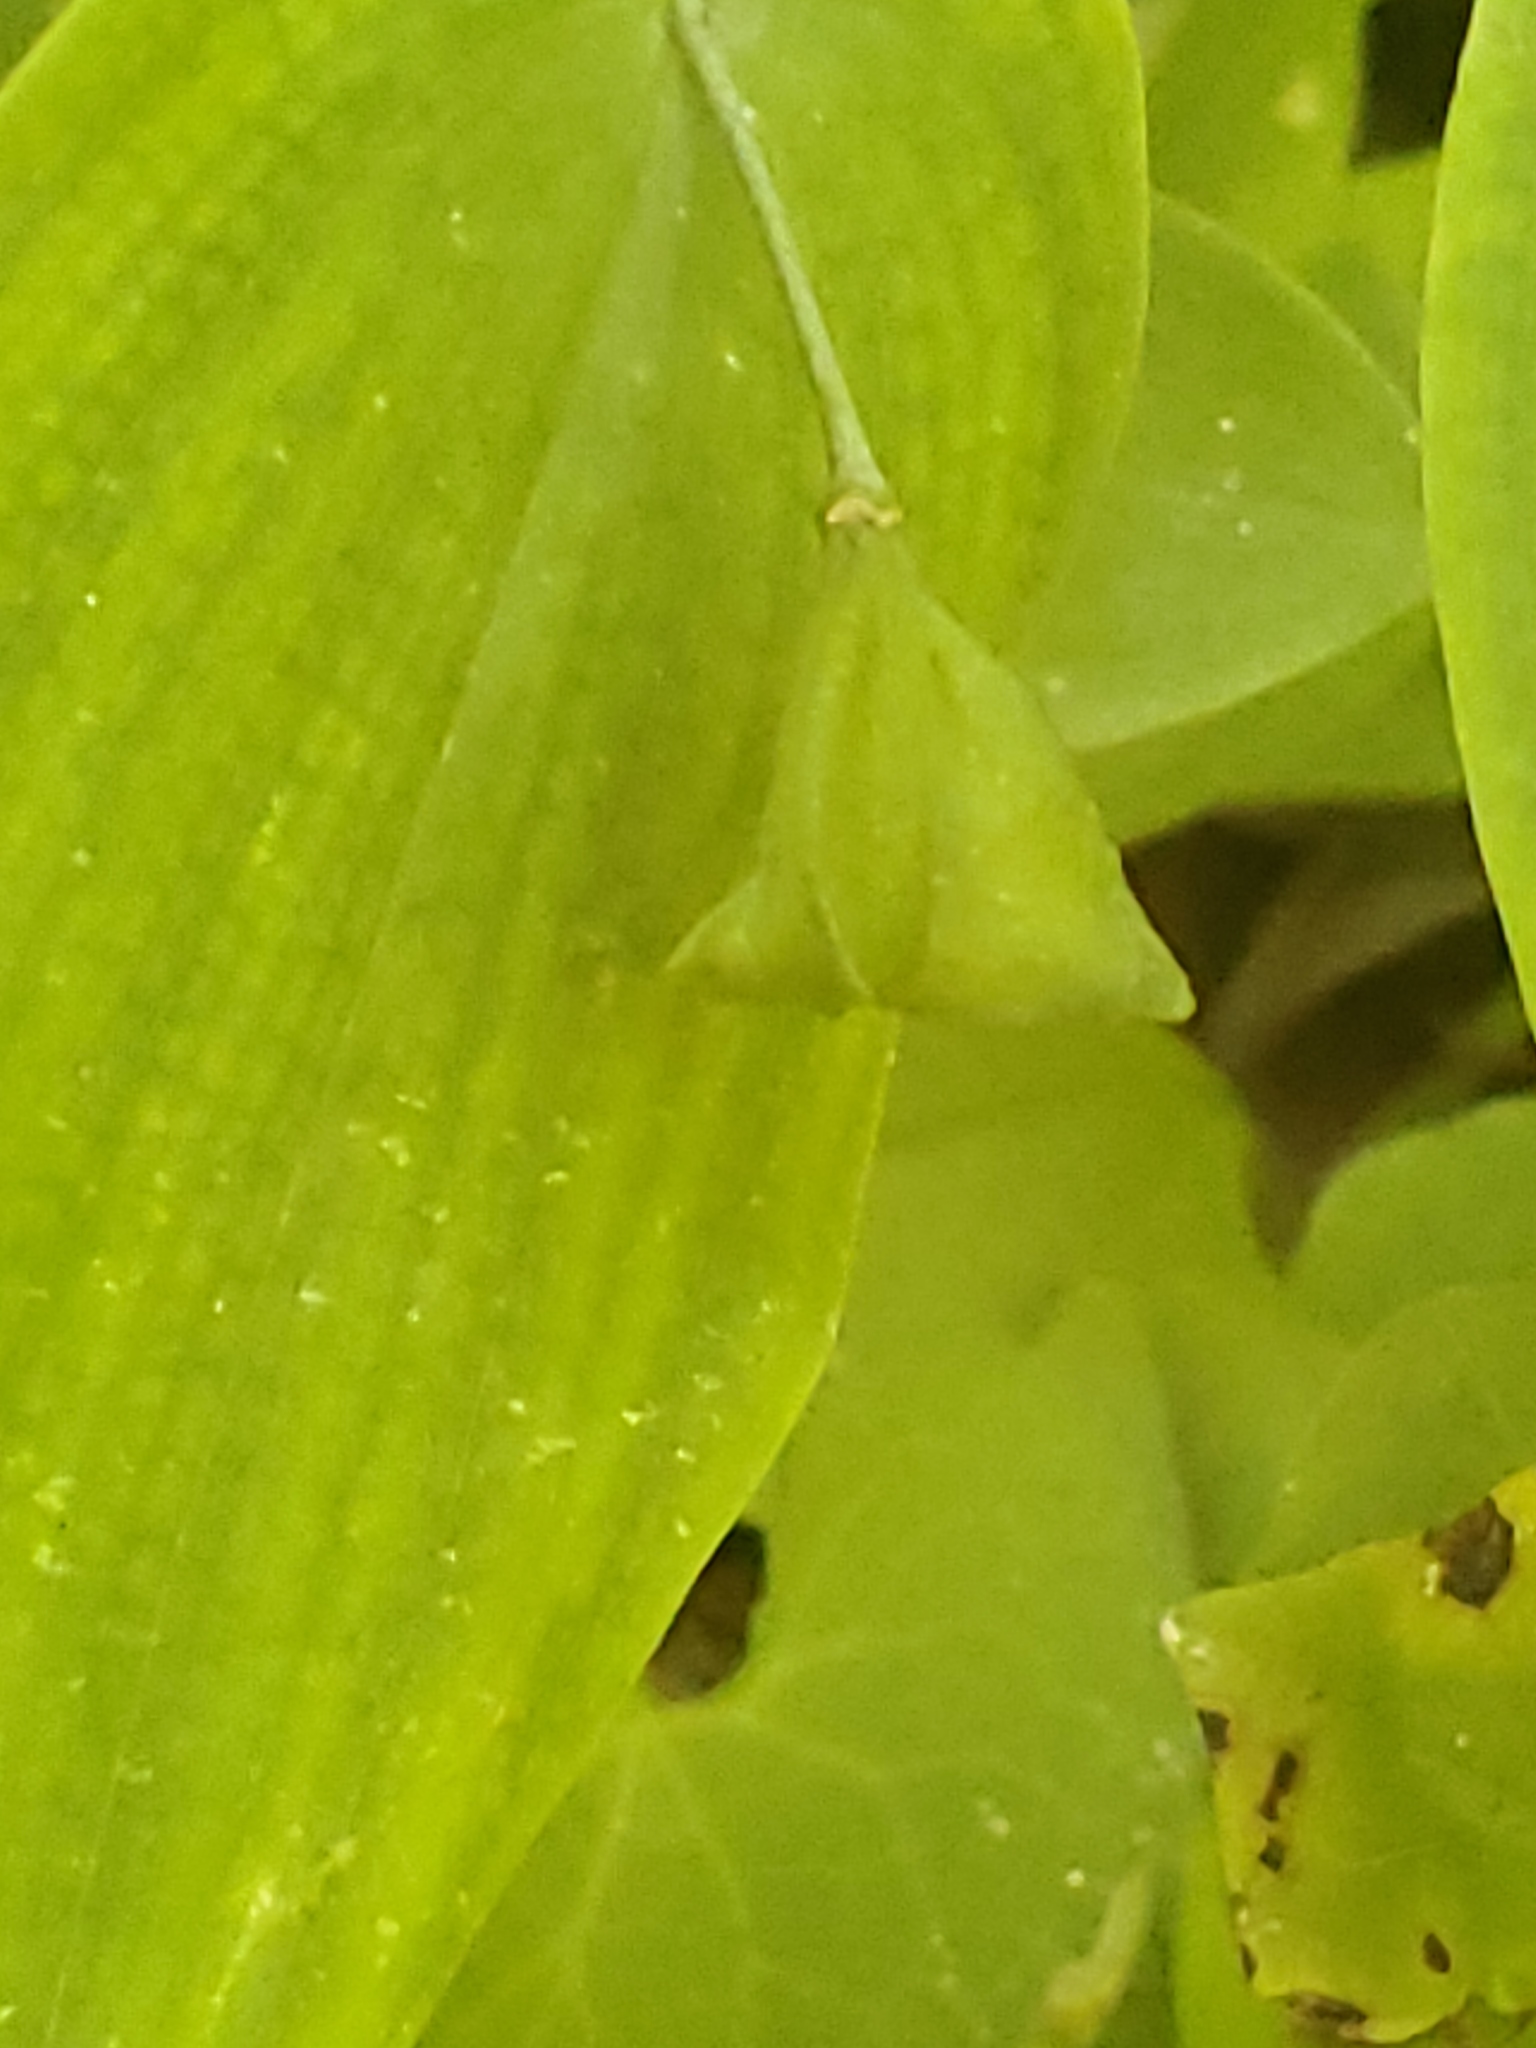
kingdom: Plantae
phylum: Tracheophyta
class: Liliopsida
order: Liliales
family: Colchicaceae
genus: Uvularia
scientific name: Uvularia perfoliata
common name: Perfoliate bellwort
